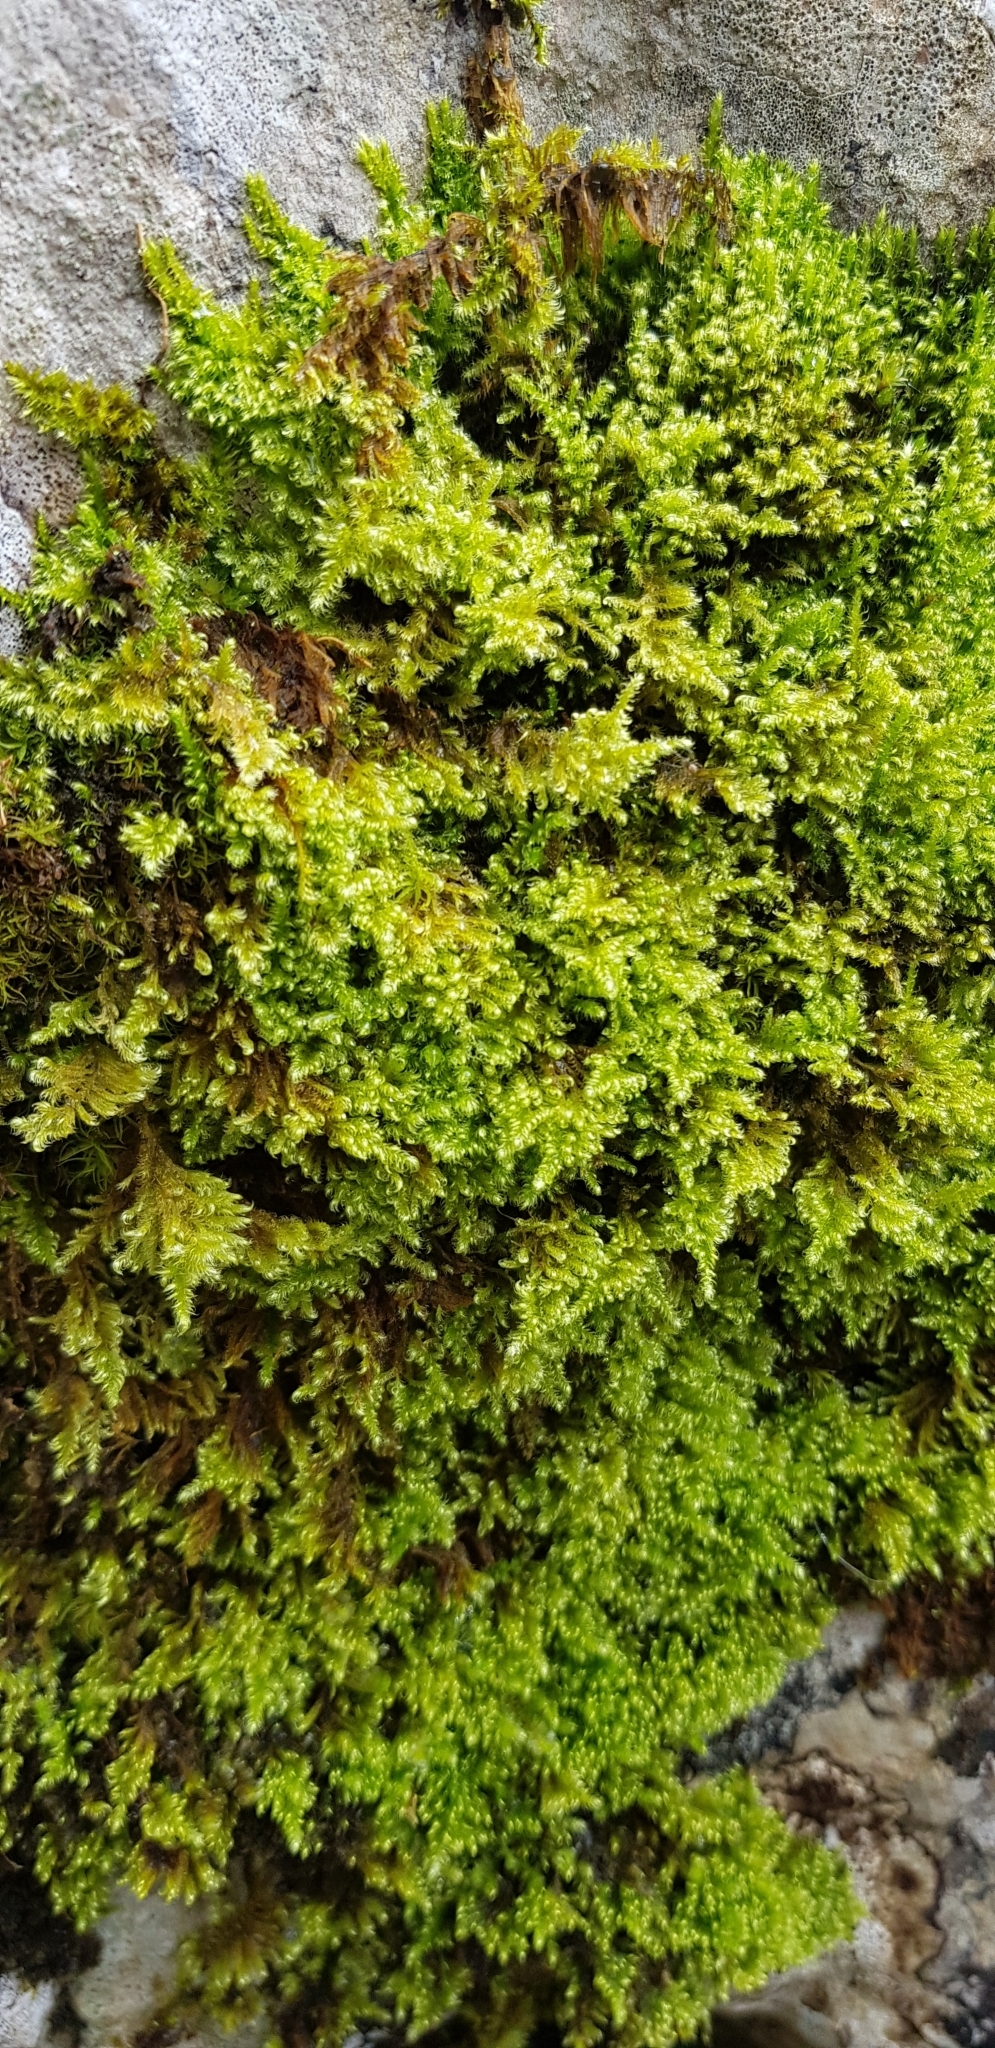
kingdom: Plantae
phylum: Bryophyta
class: Bryopsida
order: Hypnales
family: Myuriaceae
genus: Ctenidium
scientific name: Ctenidium molluscum
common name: Chalk comb-moss
